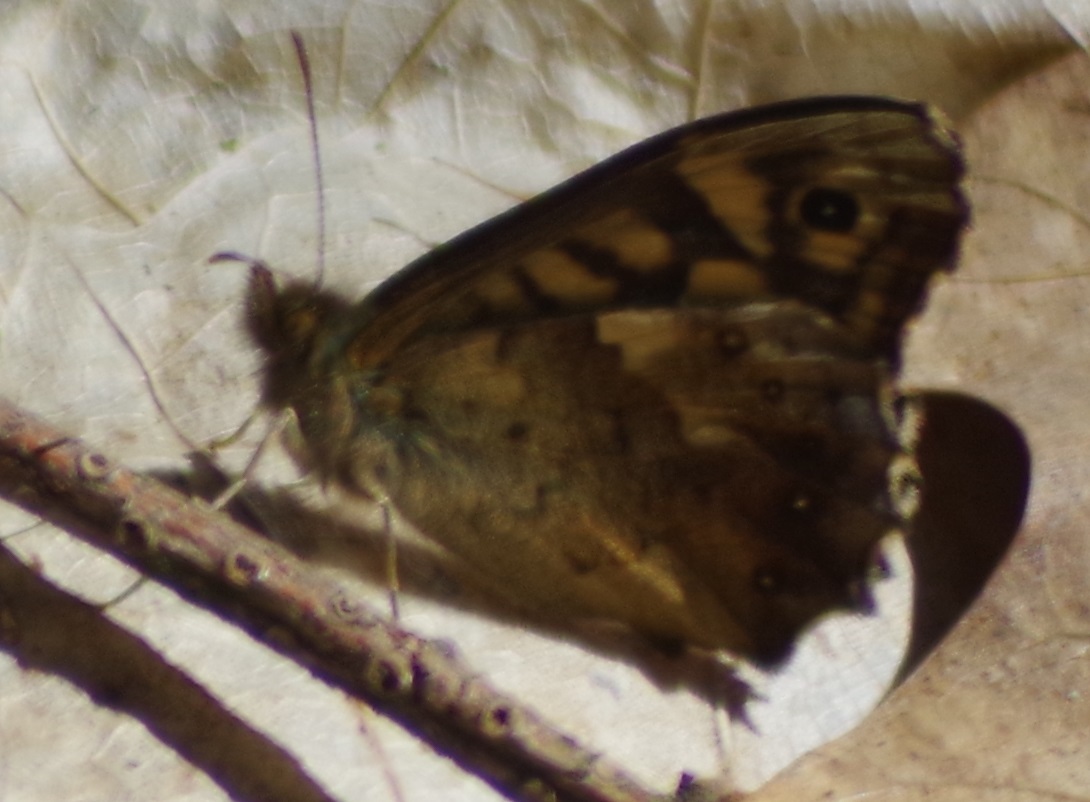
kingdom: Animalia
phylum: Arthropoda
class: Insecta
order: Lepidoptera
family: Nymphalidae
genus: Pararge
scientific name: Pararge aegeria
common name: Speckled wood
